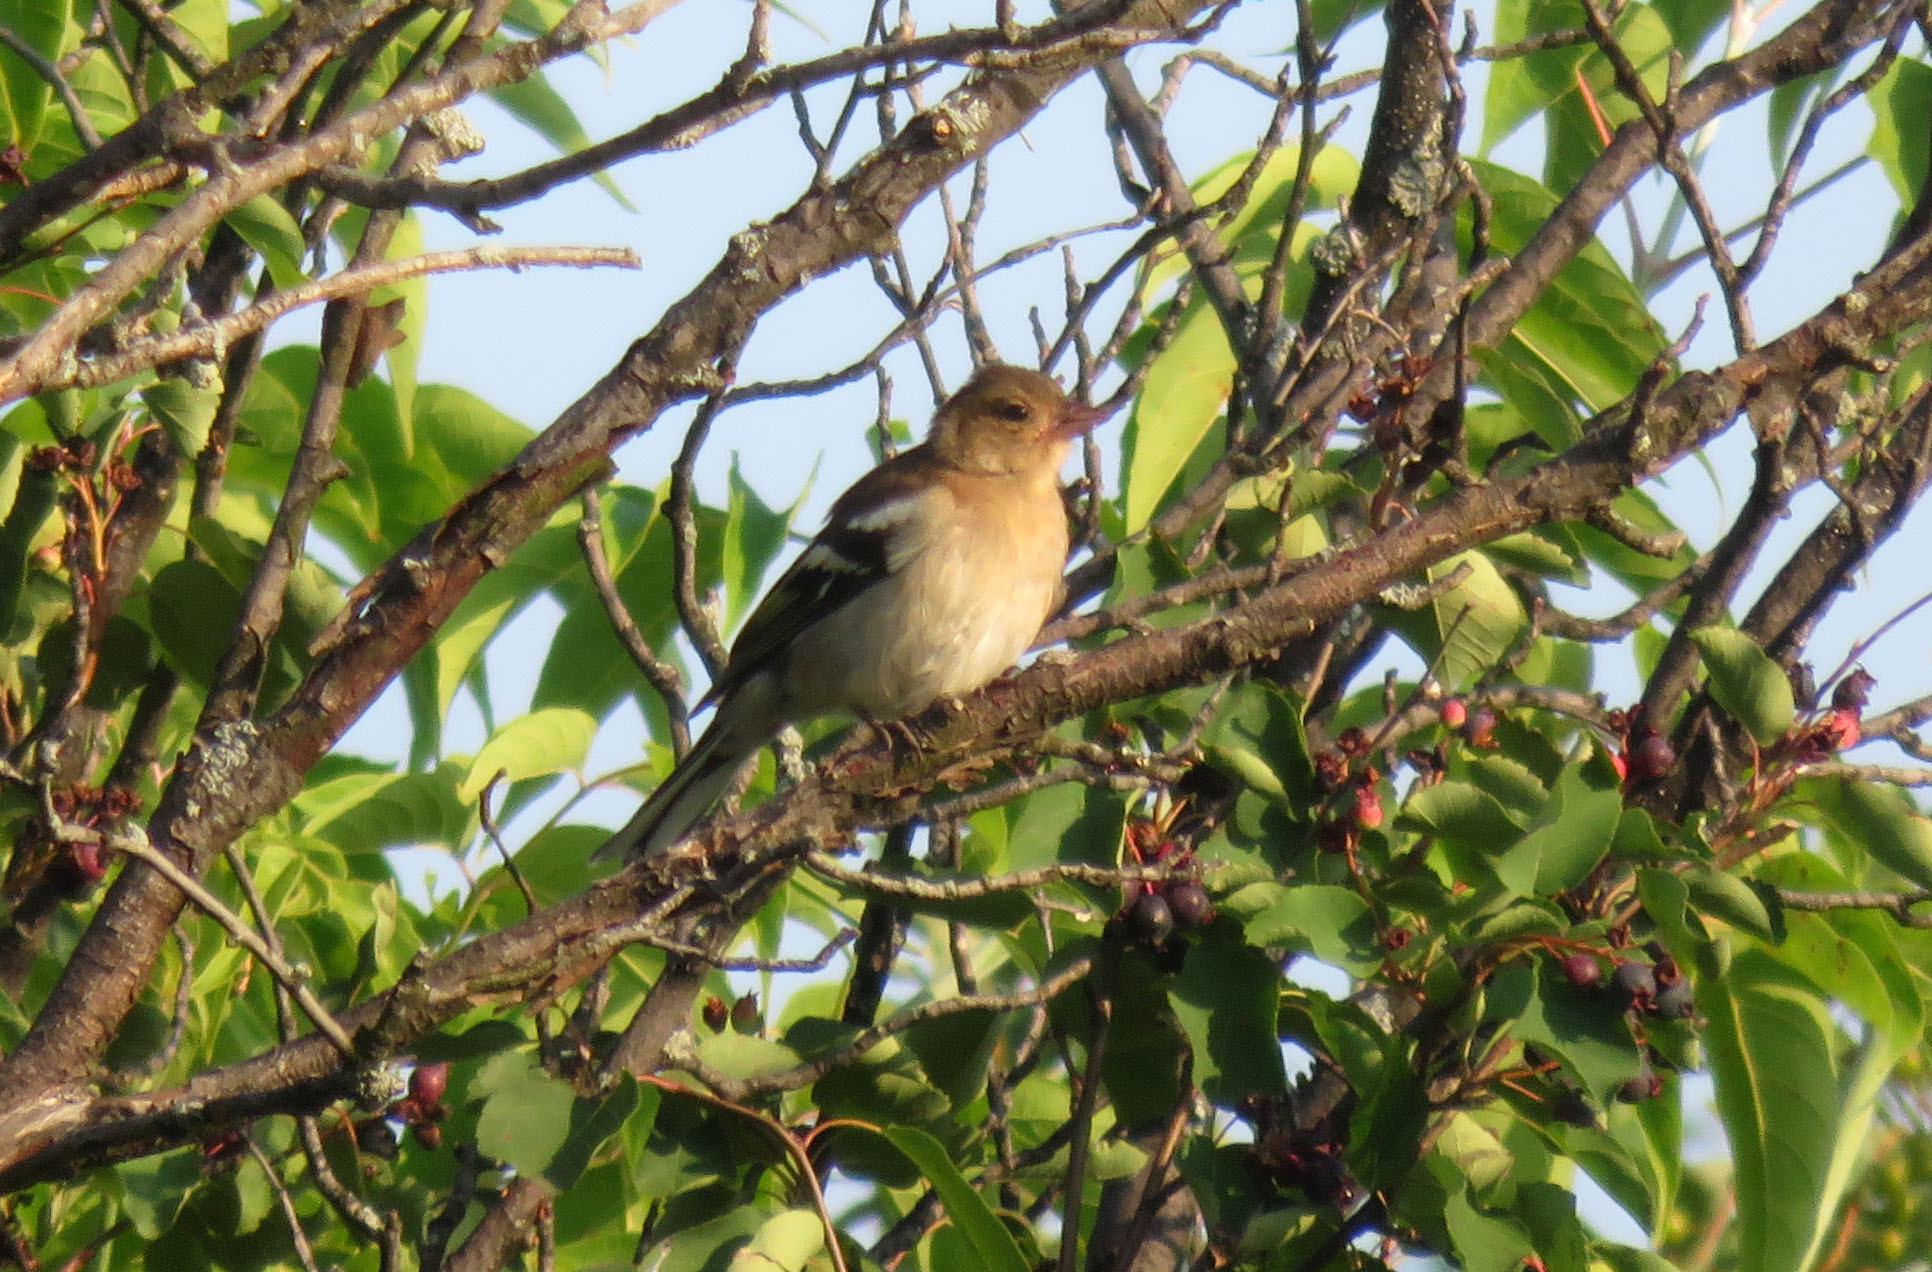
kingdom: Animalia
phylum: Chordata
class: Aves
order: Passeriformes
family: Fringillidae
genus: Fringilla
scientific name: Fringilla coelebs
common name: Common chaffinch
